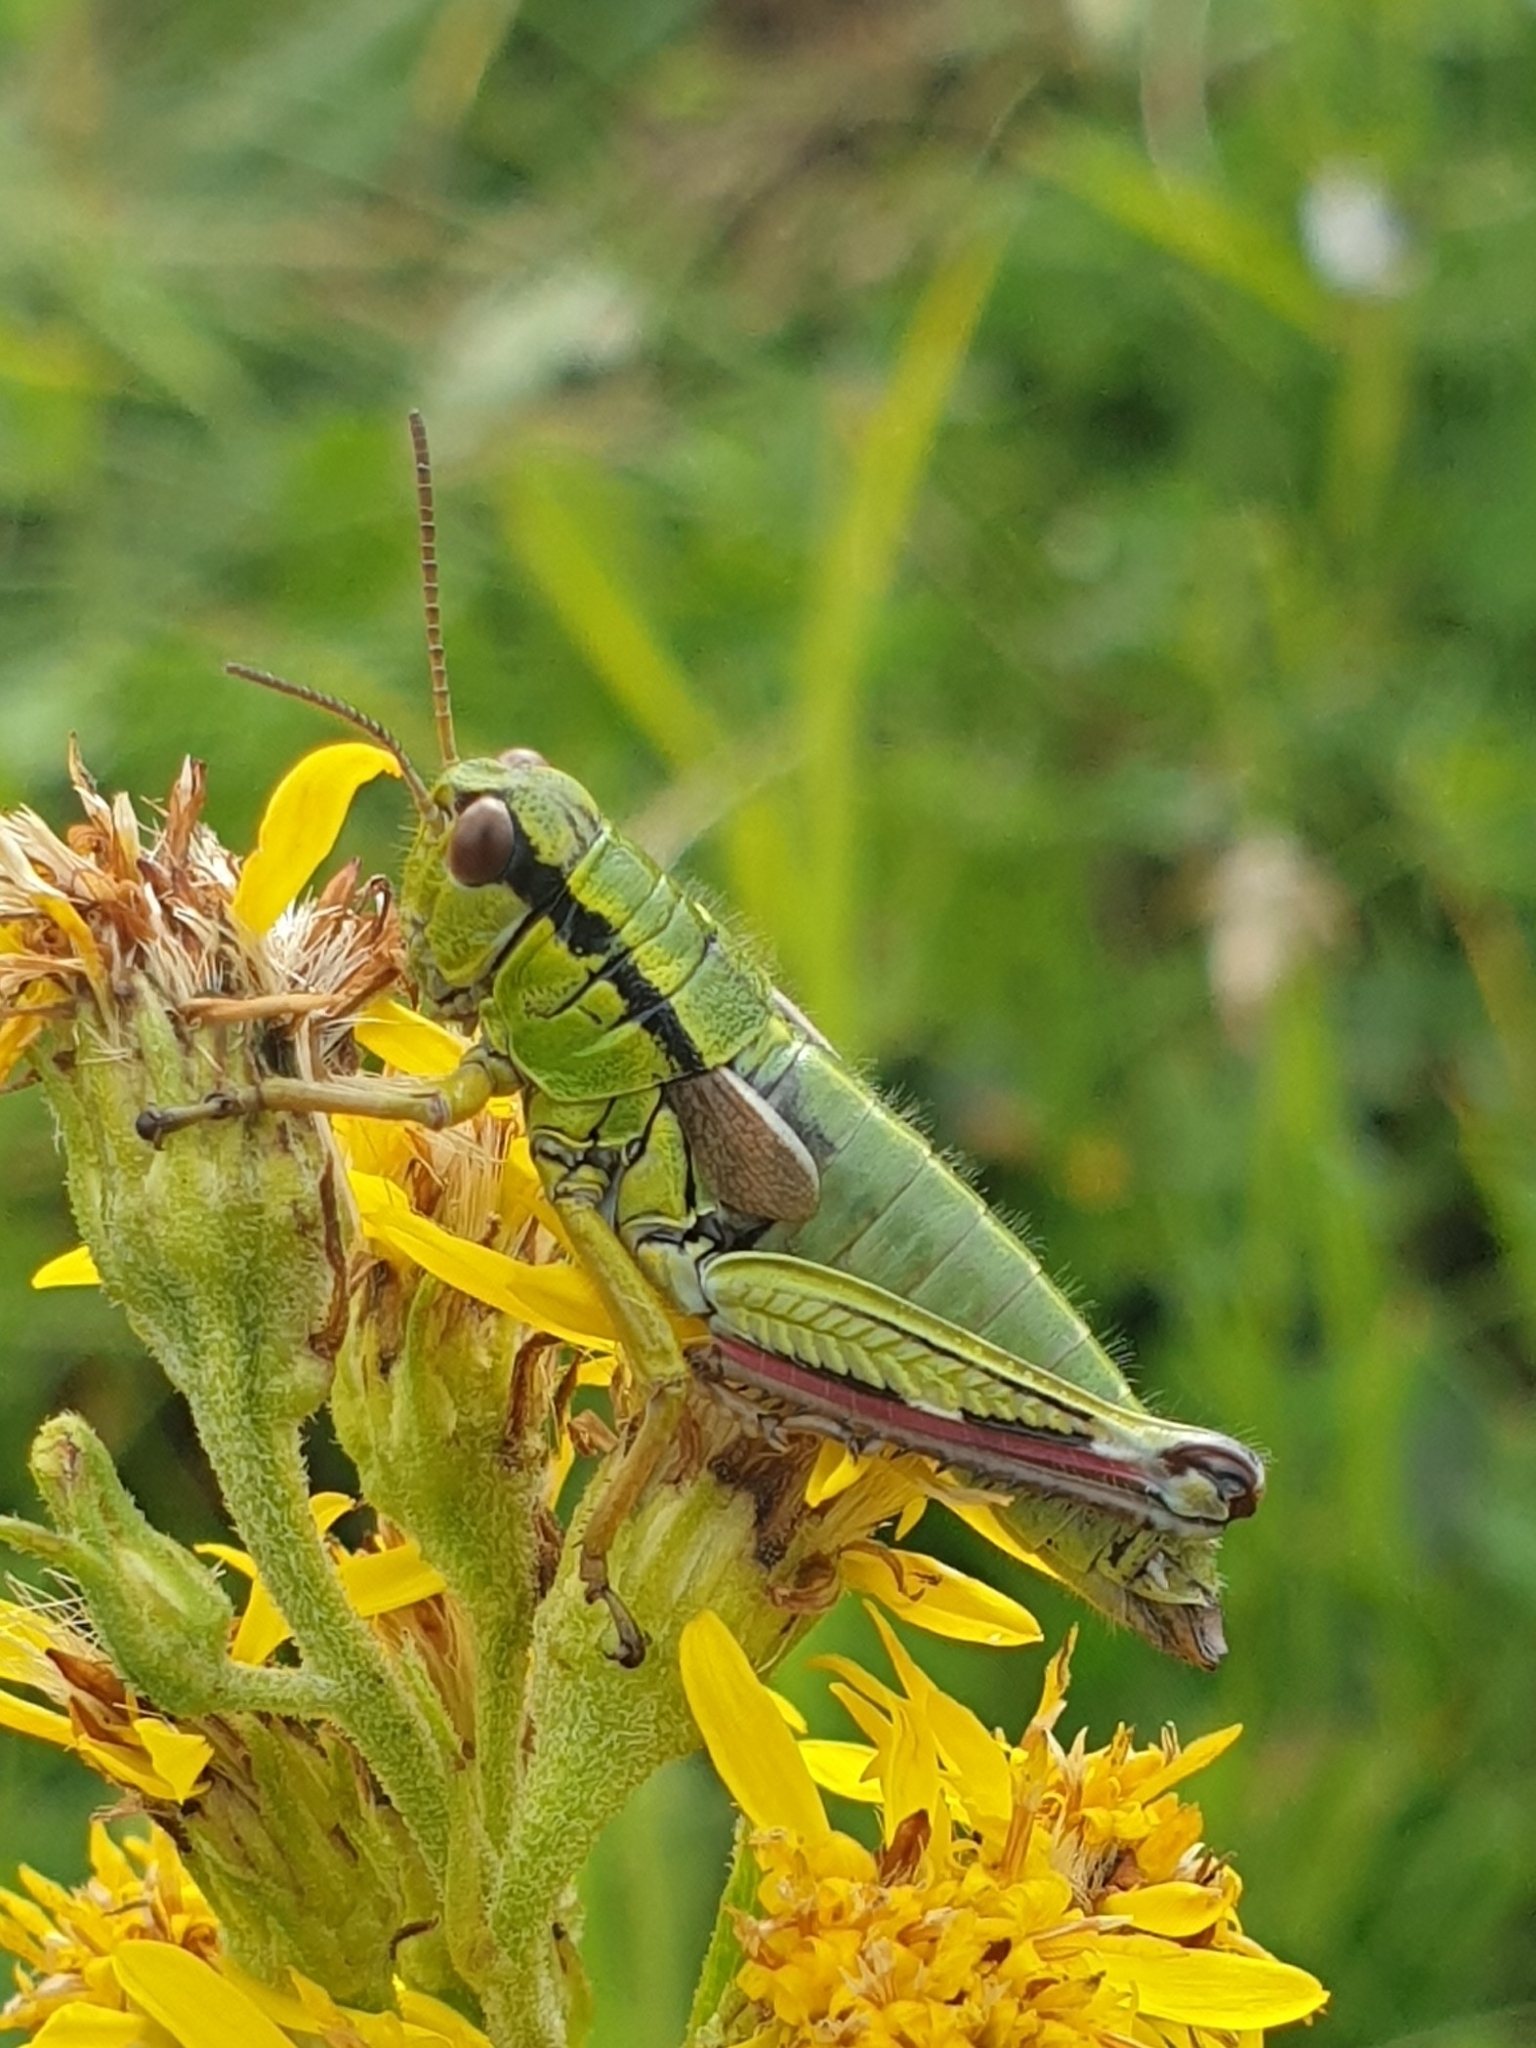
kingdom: Animalia
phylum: Arthropoda
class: Insecta
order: Orthoptera
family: Acrididae
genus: Miramella
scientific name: Miramella alpina
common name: Green mountain grasshopper
